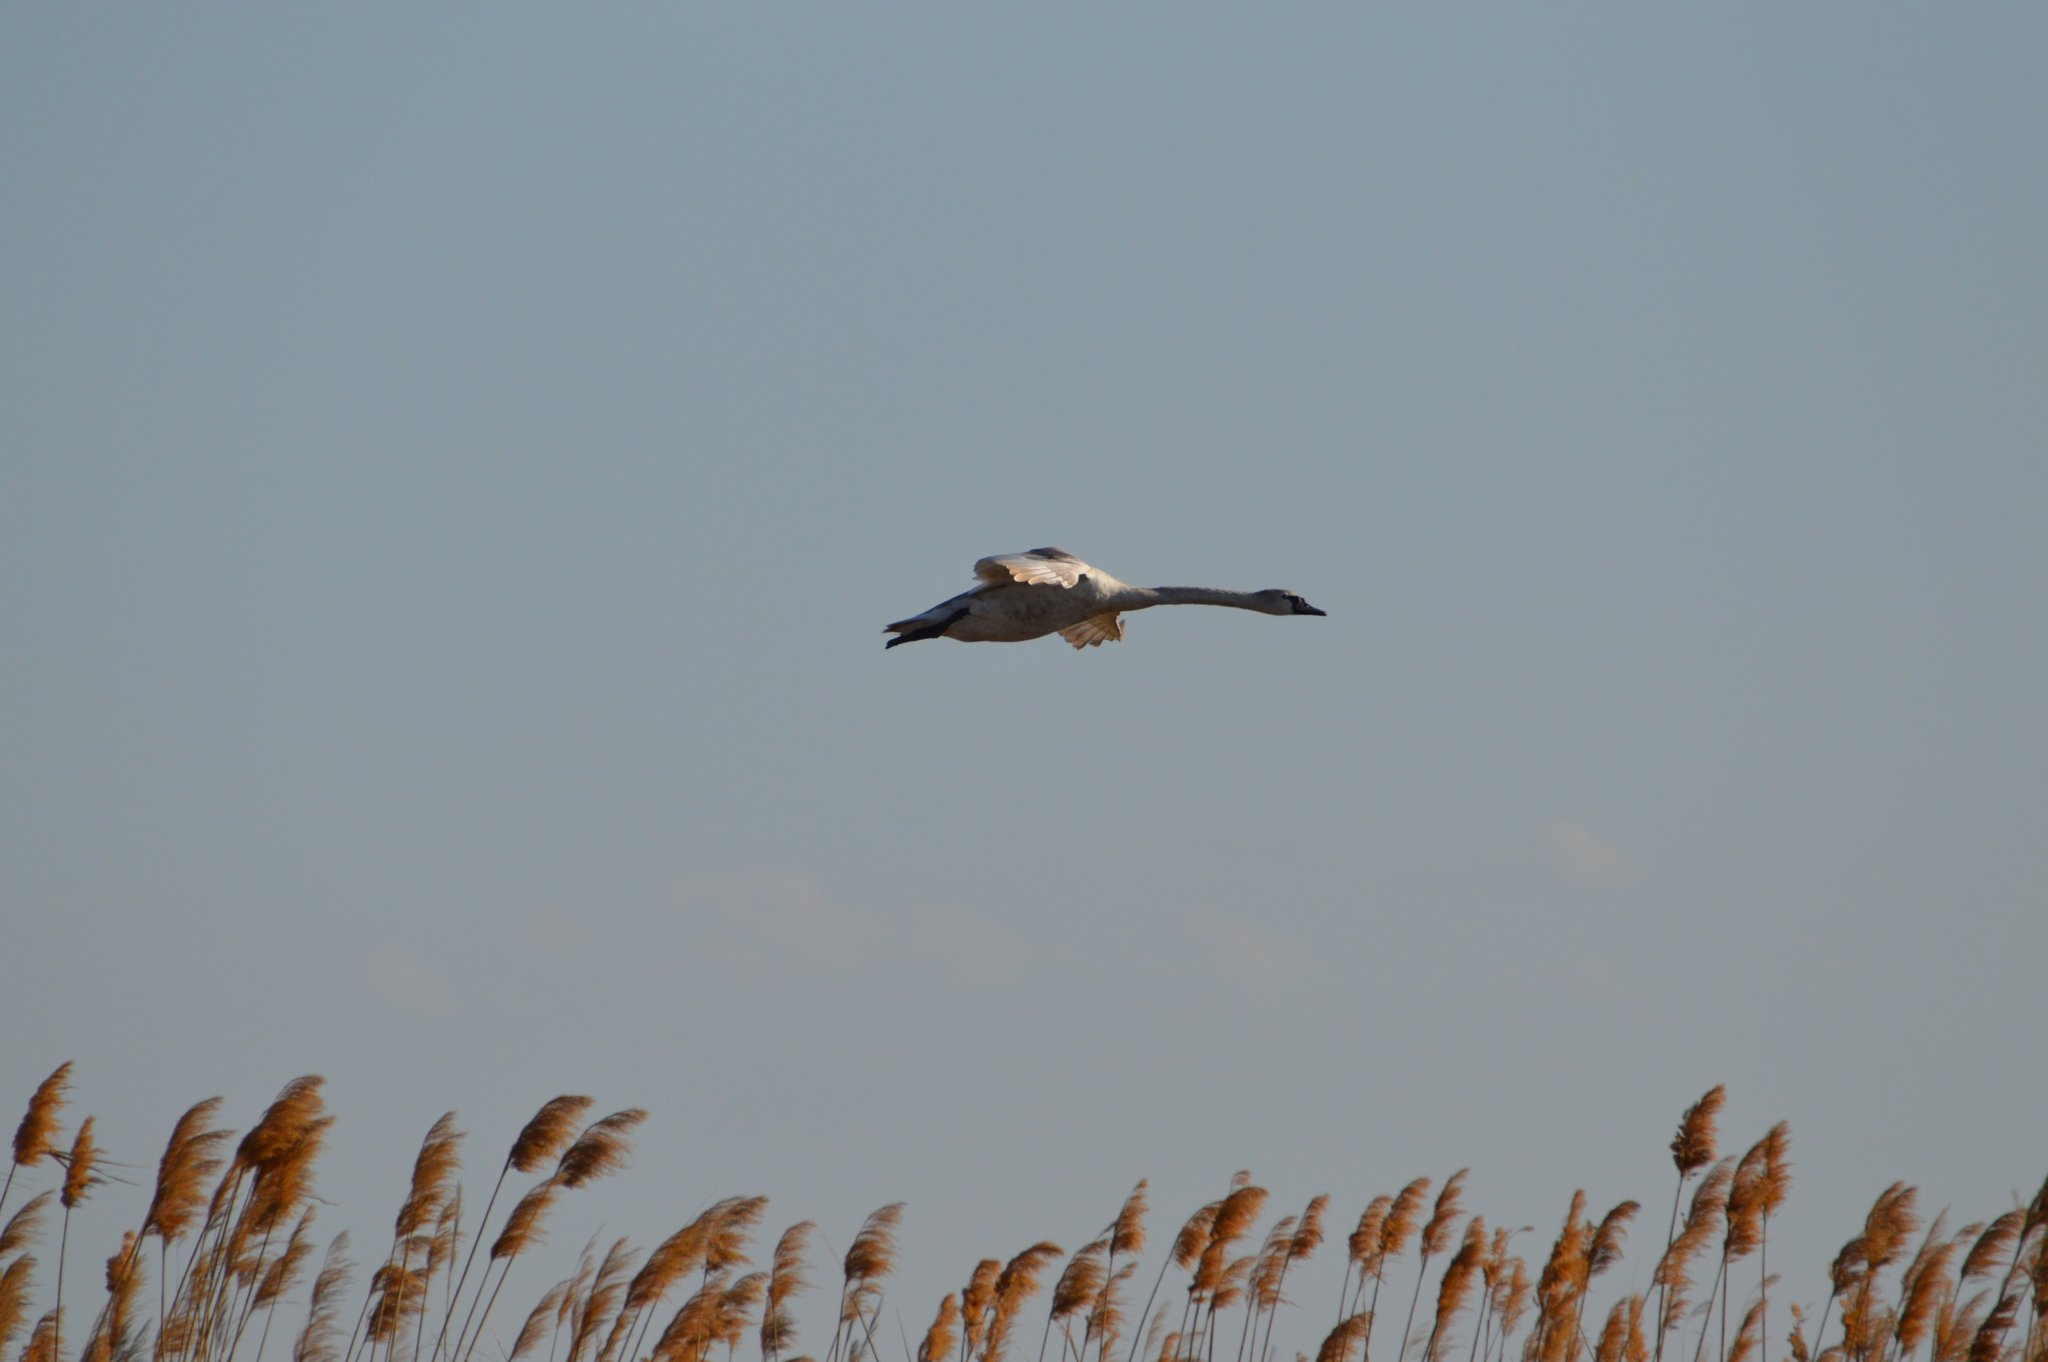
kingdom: Animalia
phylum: Chordata
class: Aves
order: Anseriformes
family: Anatidae
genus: Cygnus
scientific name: Cygnus olor
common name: Mute swan
